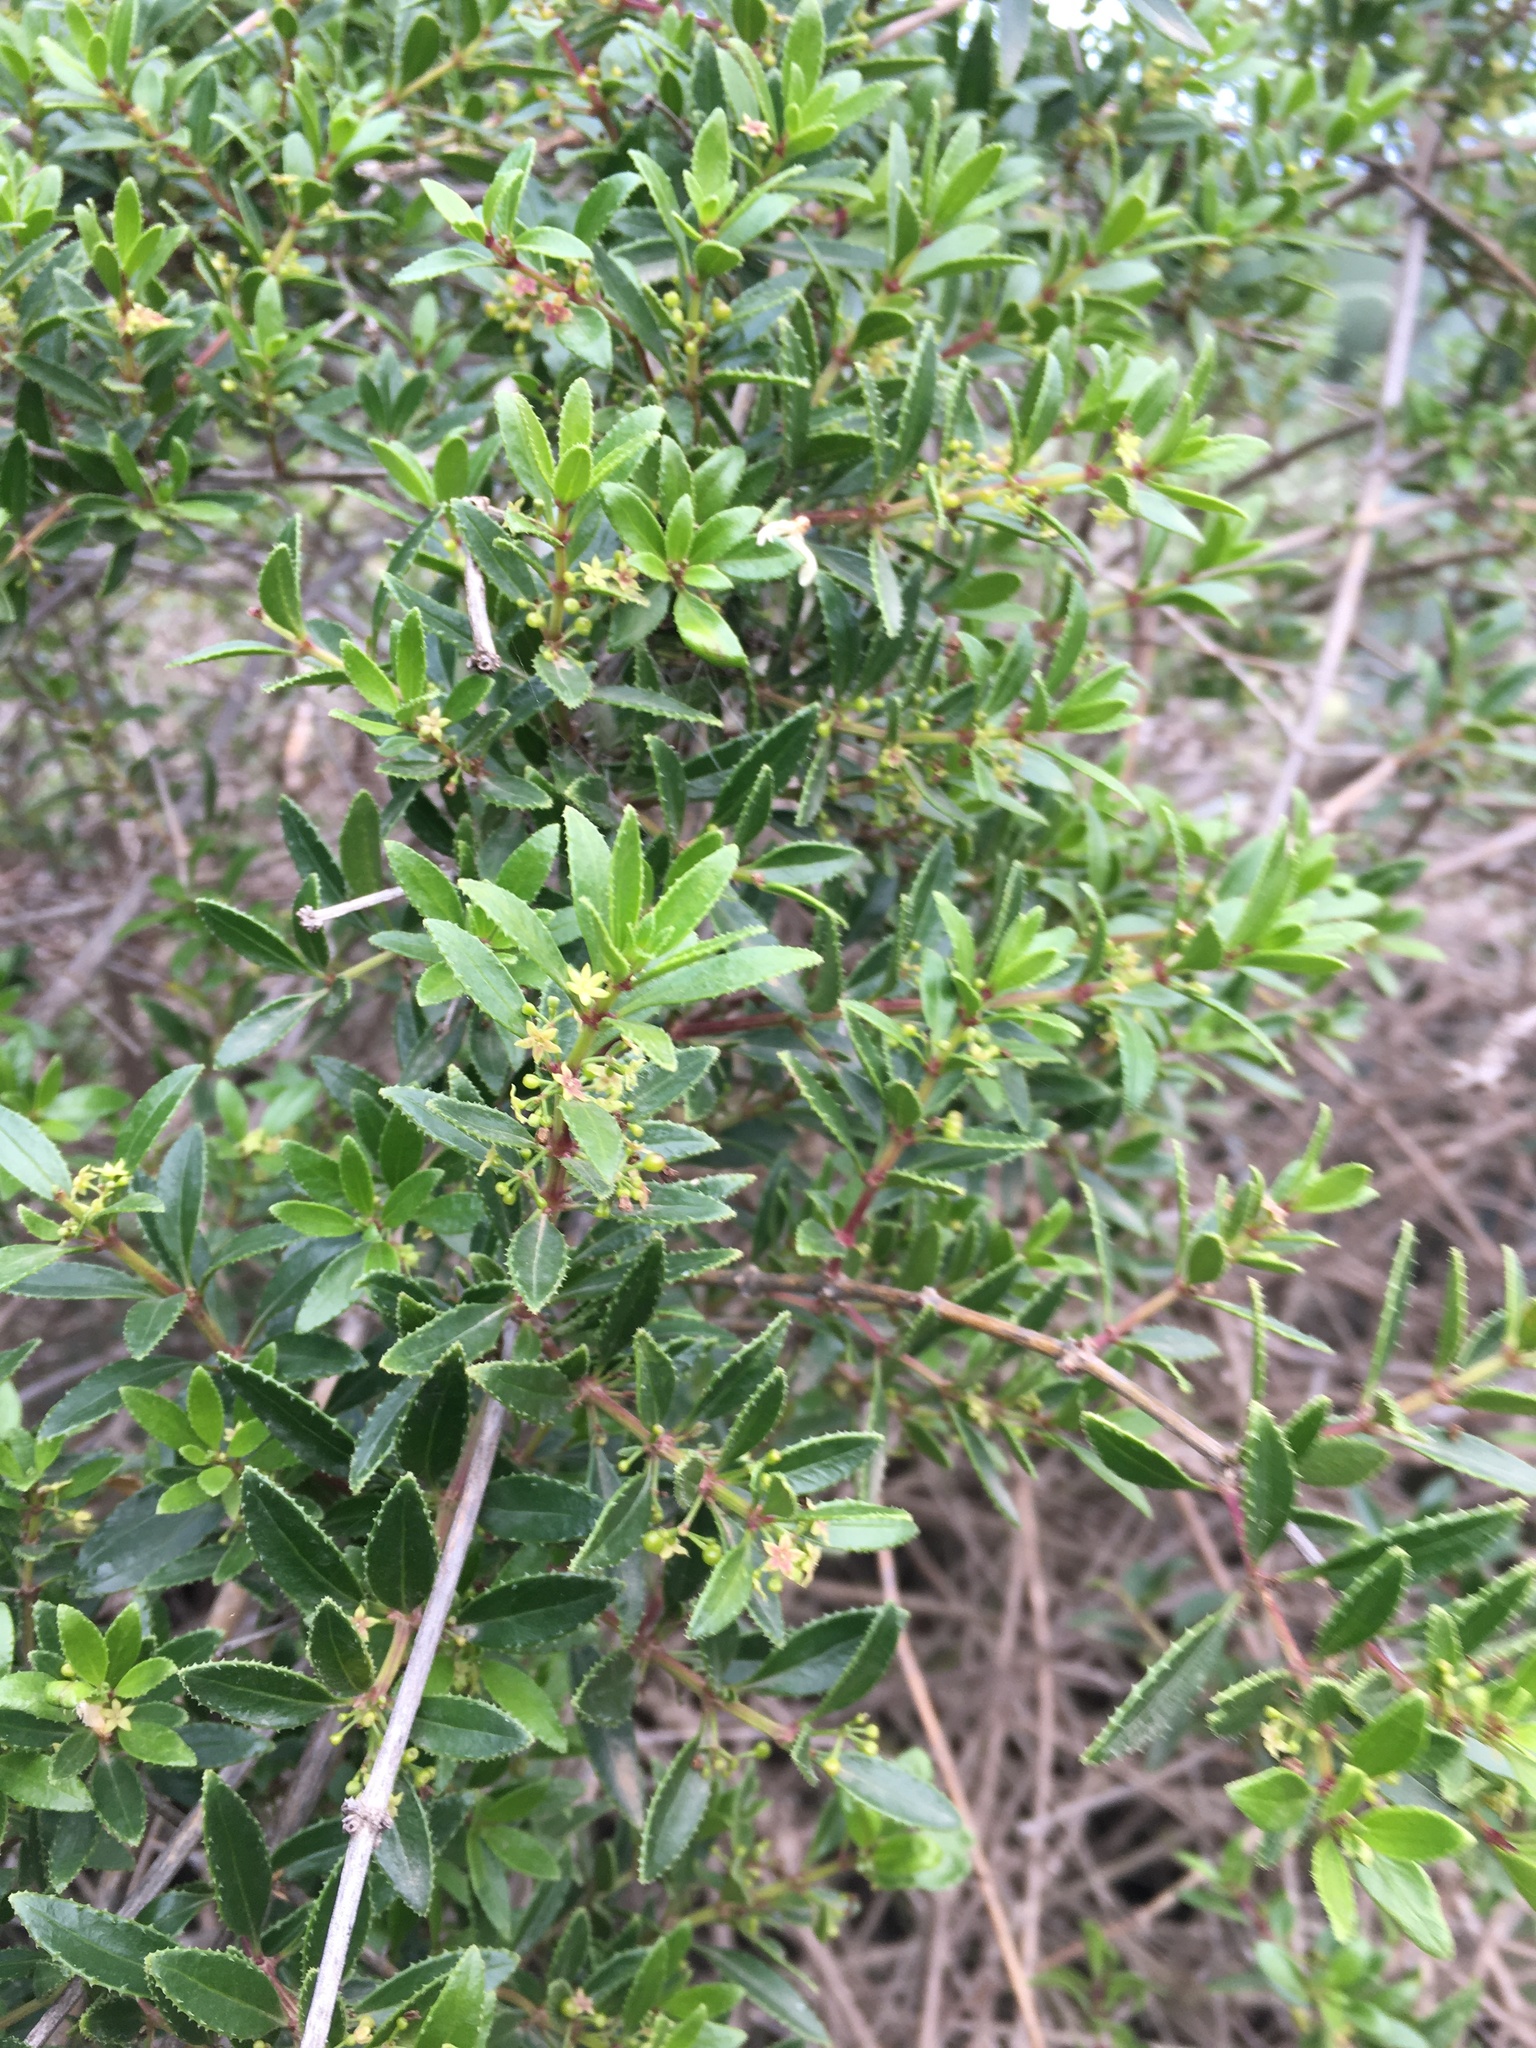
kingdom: Plantae
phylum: Tracheophyta
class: Magnoliopsida
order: Gentianales
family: Rubiaceae
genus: Rubia
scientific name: Rubia fruticosa
